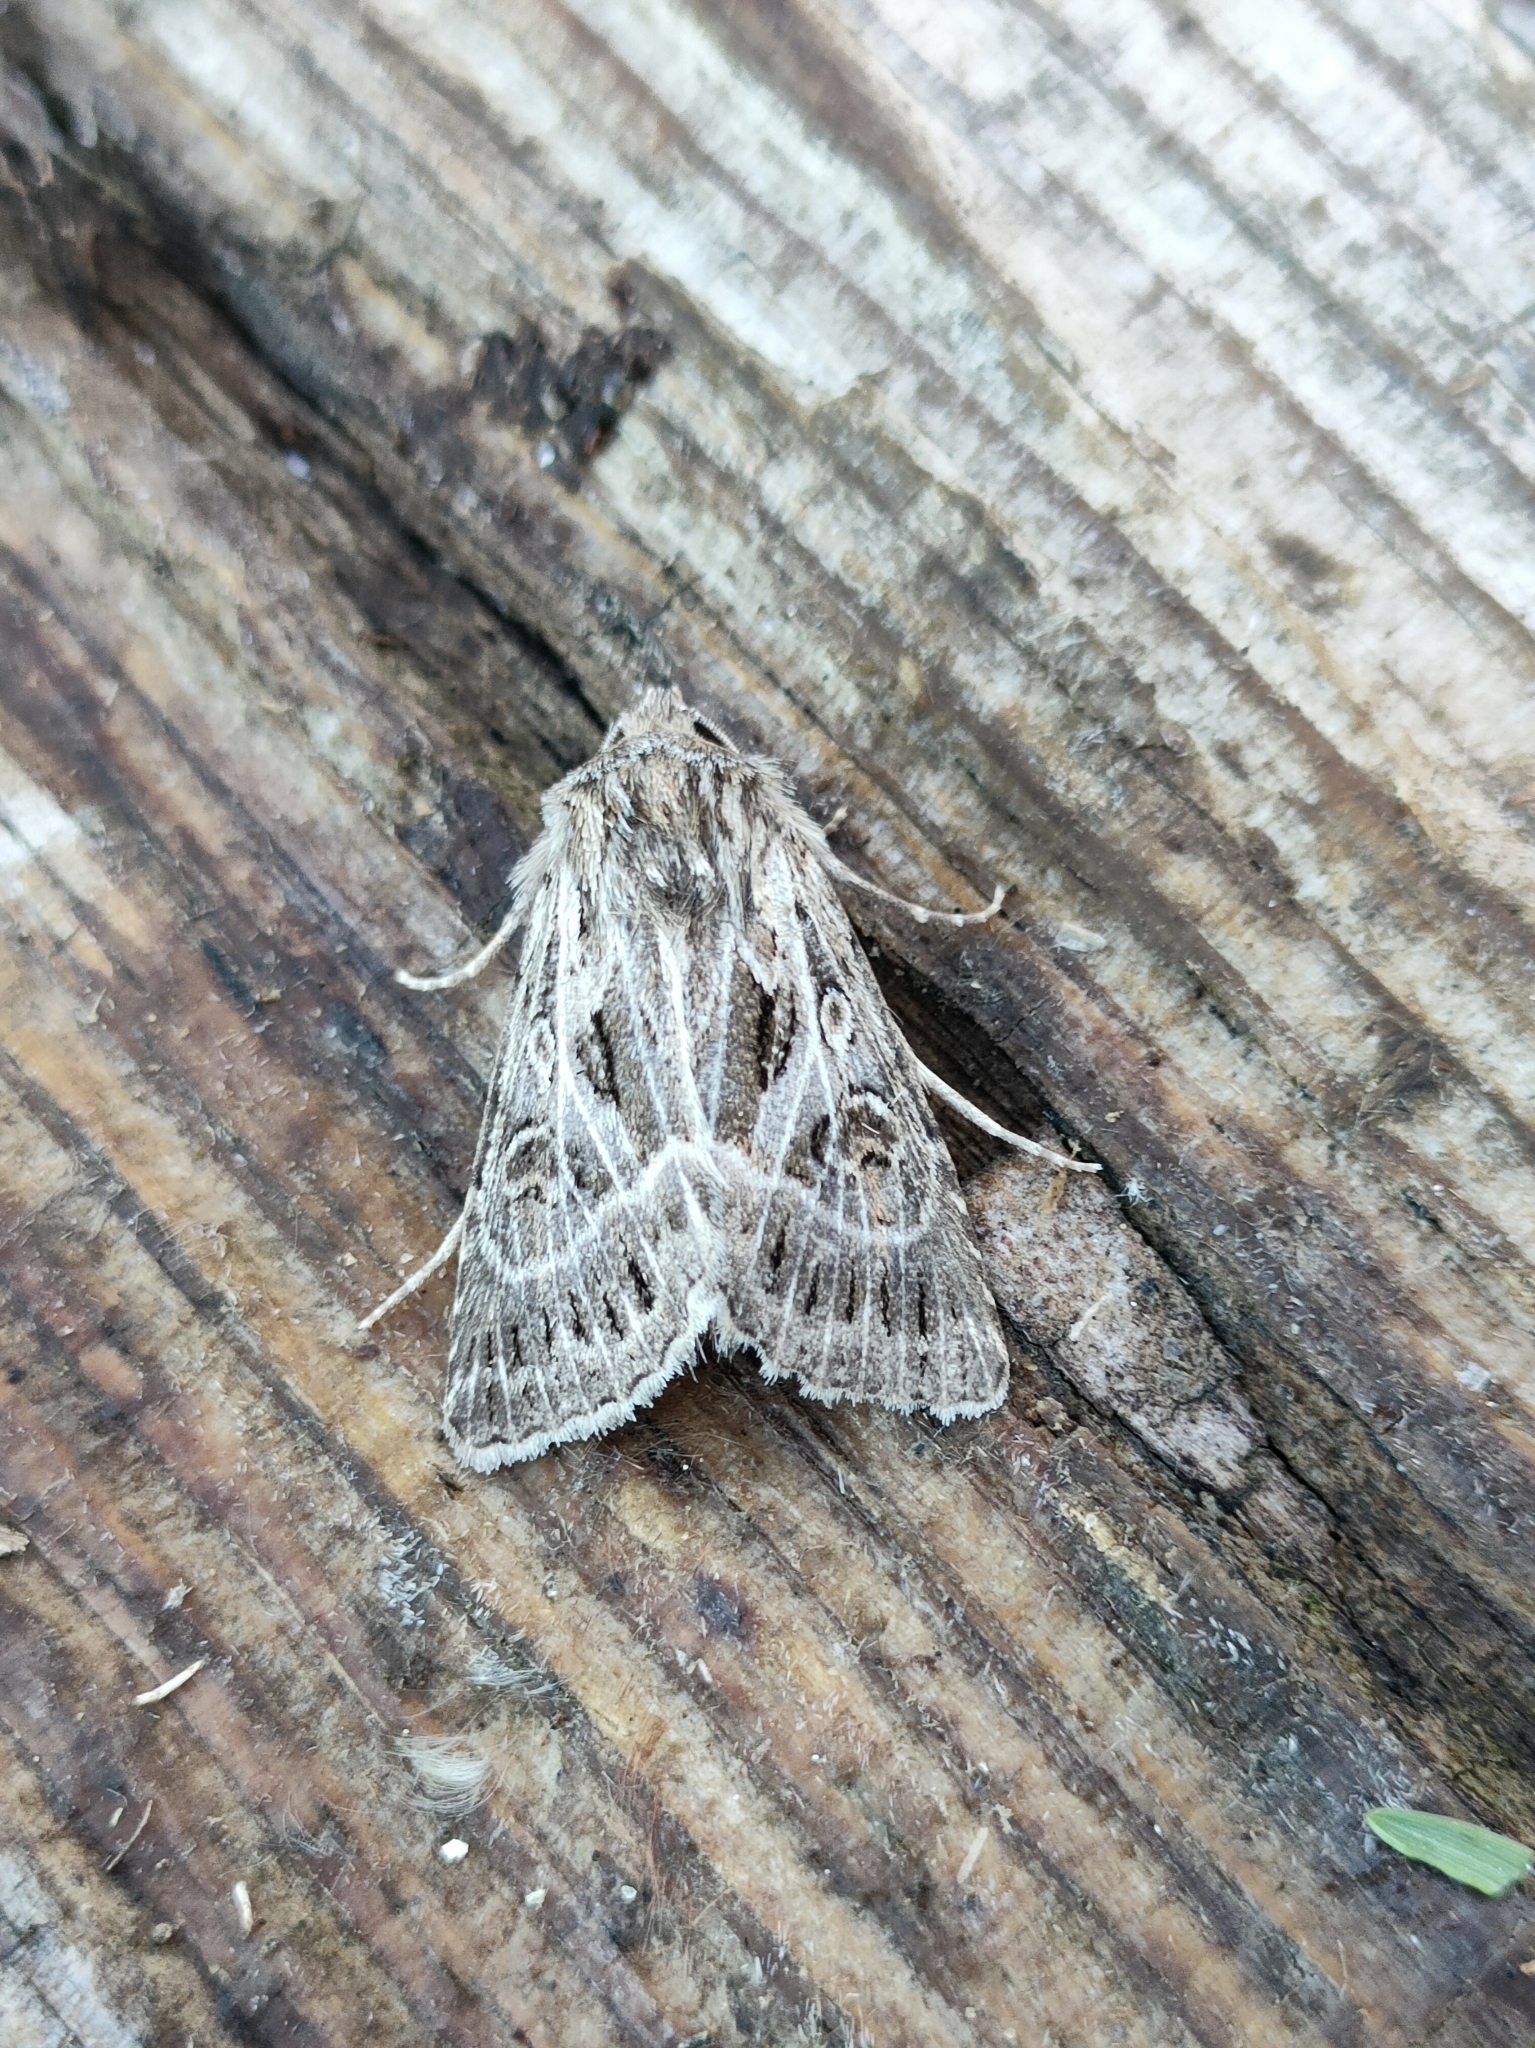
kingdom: Animalia
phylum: Arthropoda
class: Insecta
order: Lepidoptera
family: Noctuidae
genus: Thalpophila
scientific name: Thalpophila vitalba
